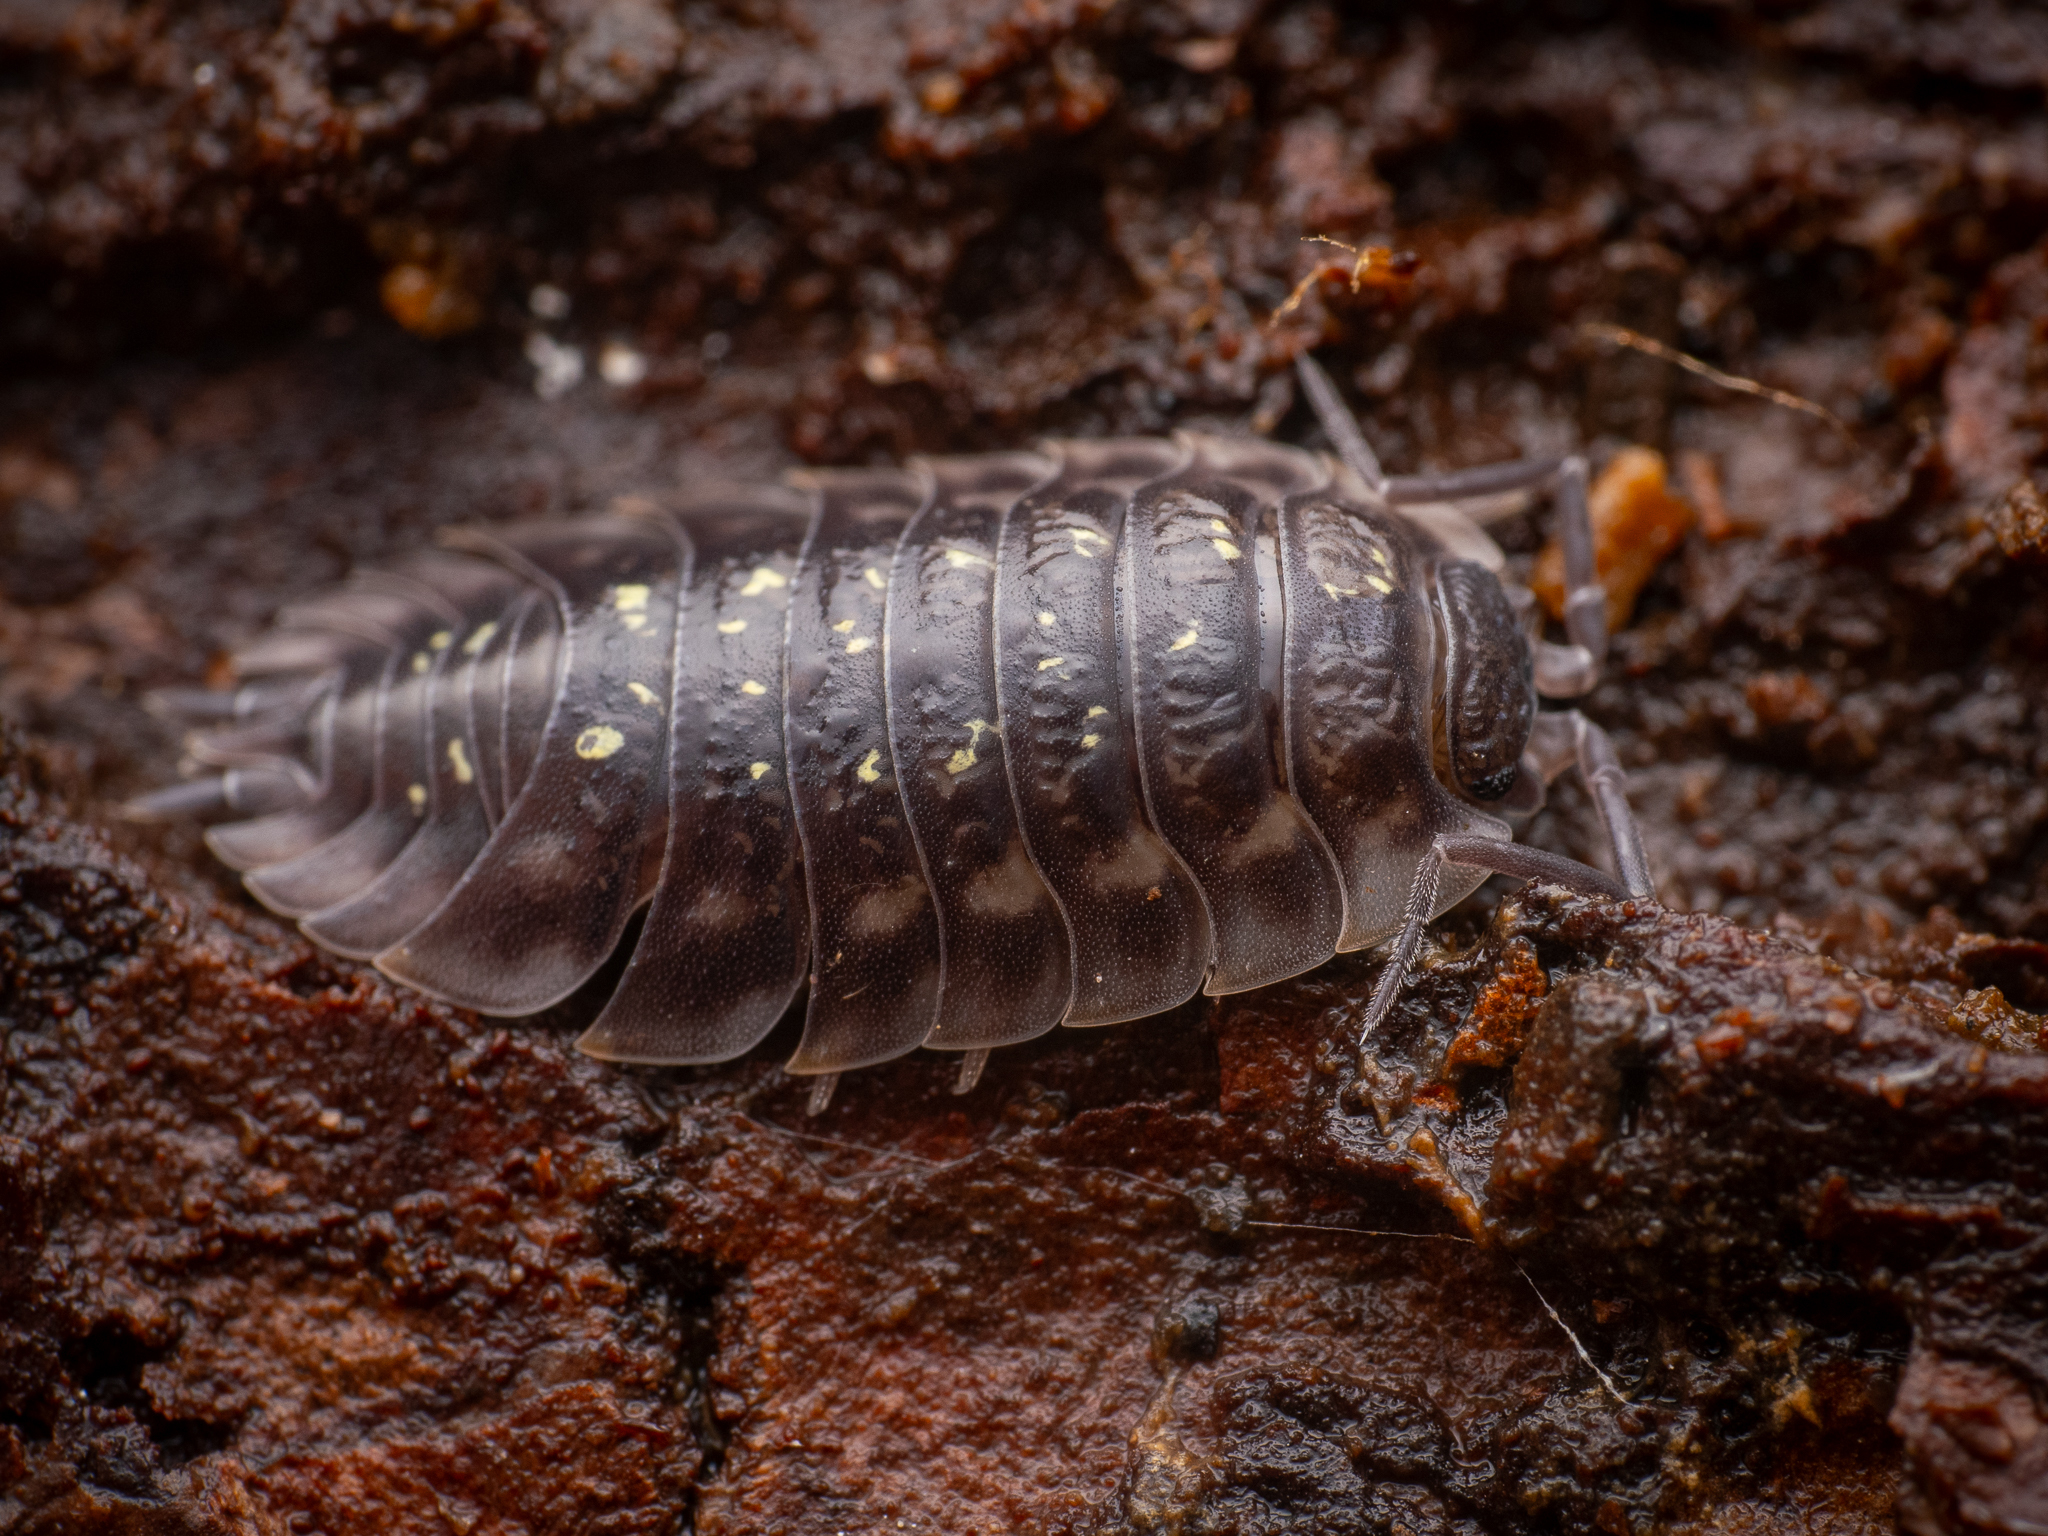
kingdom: Animalia
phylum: Arthropoda
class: Malacostraca
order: Isopoda
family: Oniscidae
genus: Oniscus
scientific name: Oniscus asellus
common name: Common shiny woodlouse
